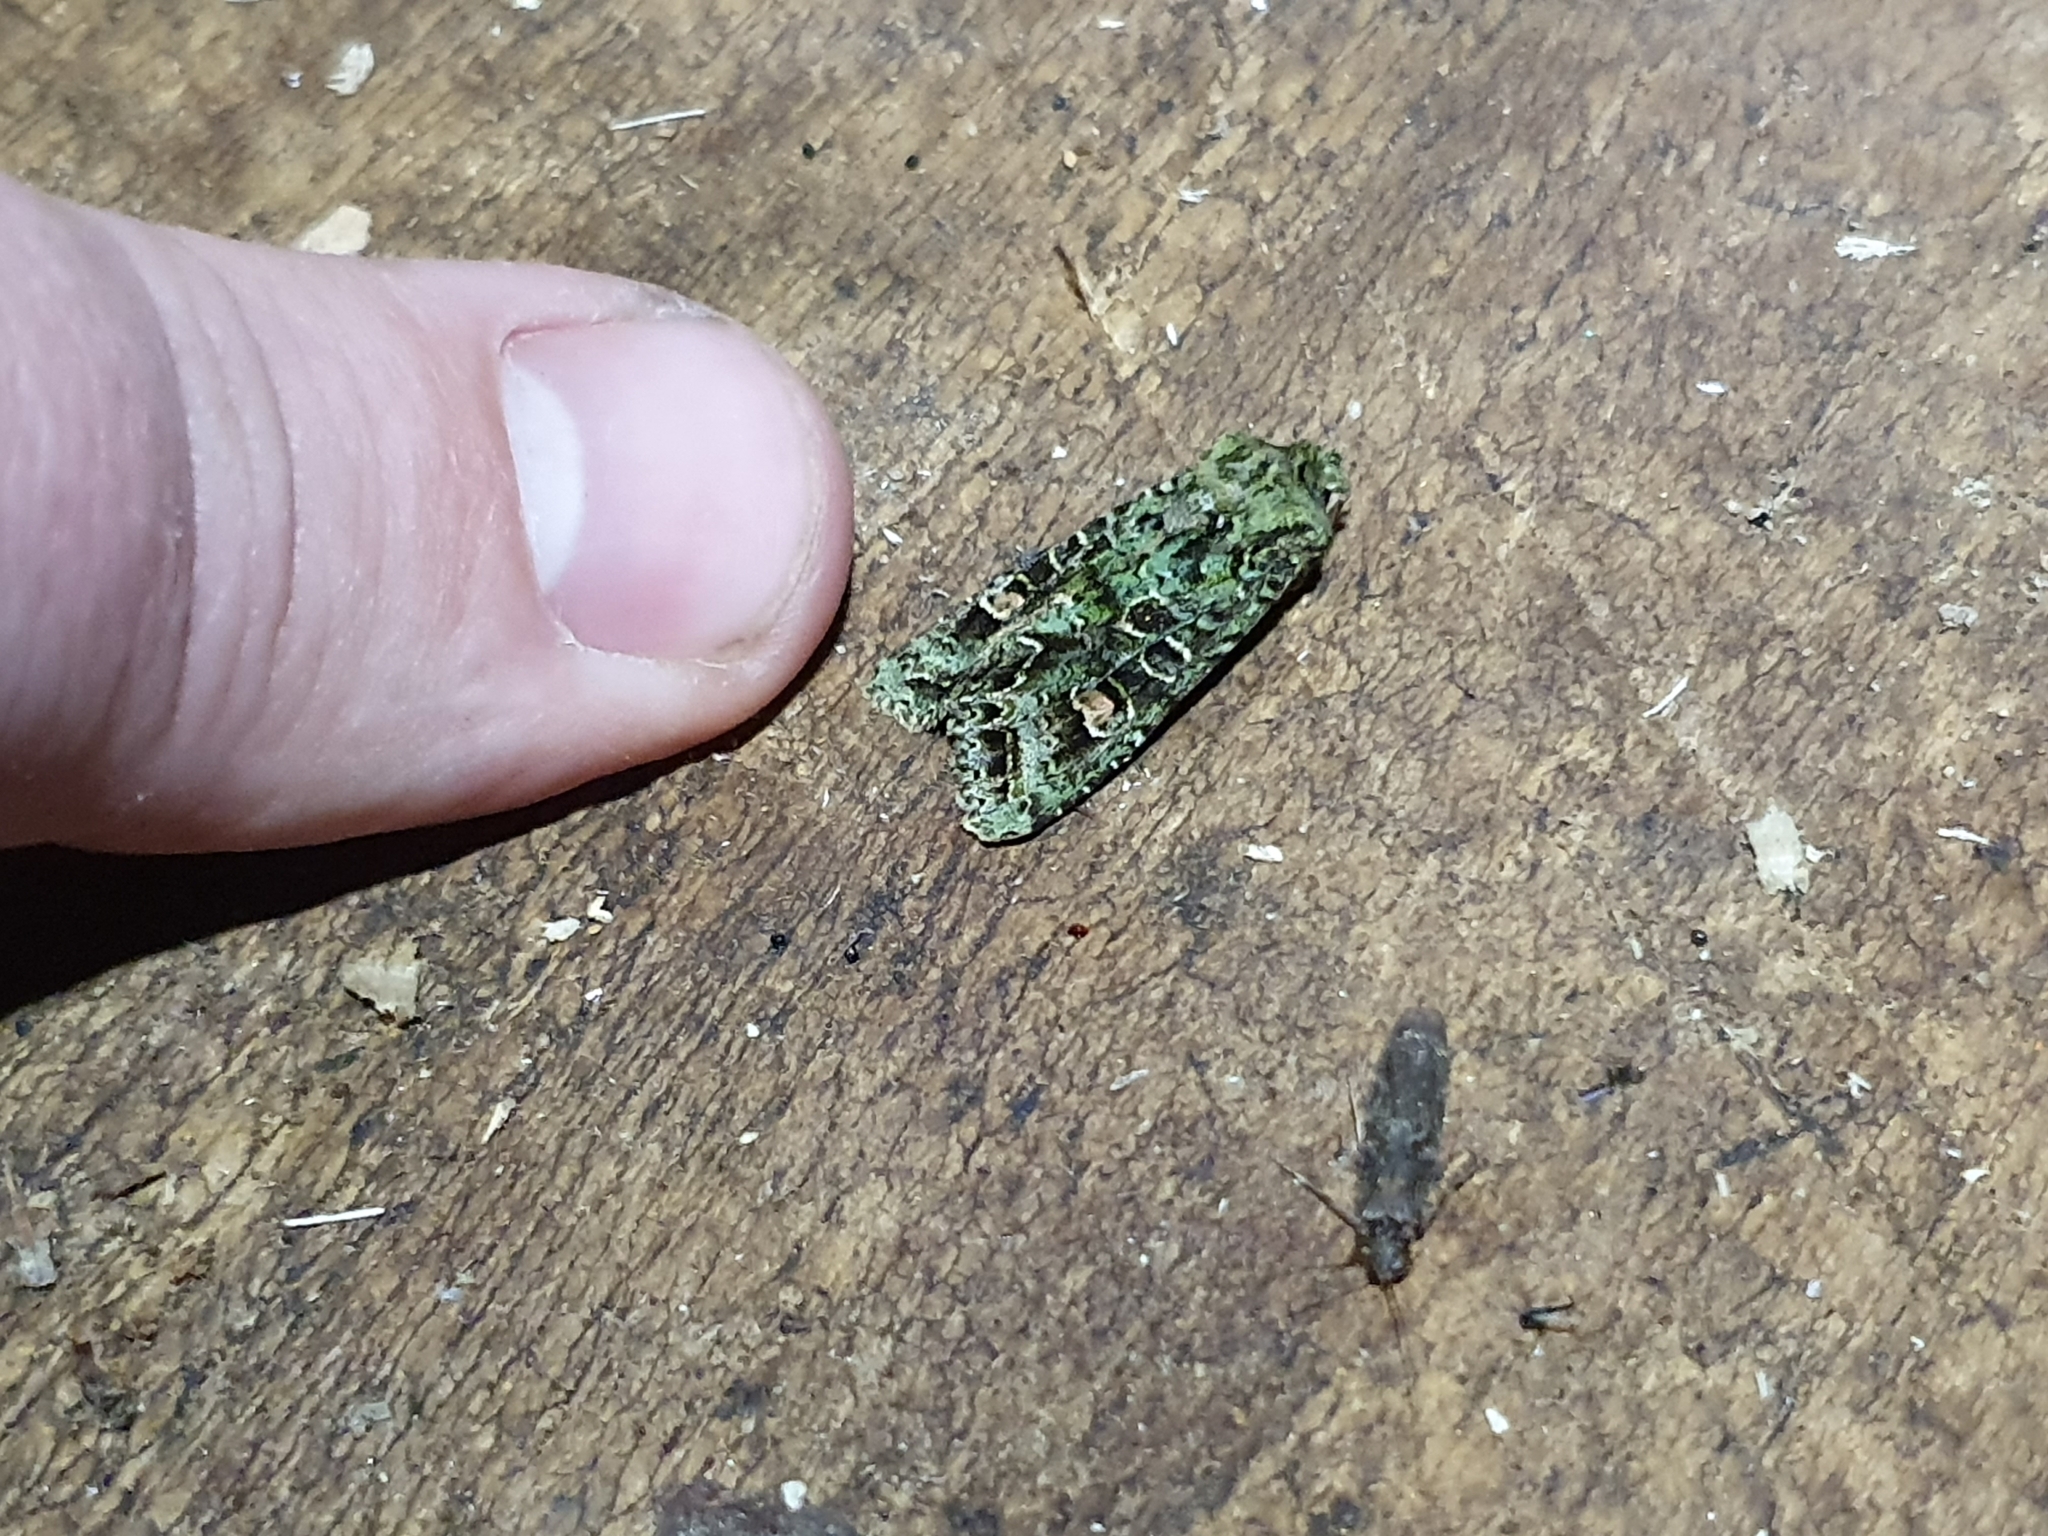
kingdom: Animalia
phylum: Arthropoda
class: Insecta
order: Lepidoptera
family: Noctuidae
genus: Ichneutica
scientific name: Ichneutica
